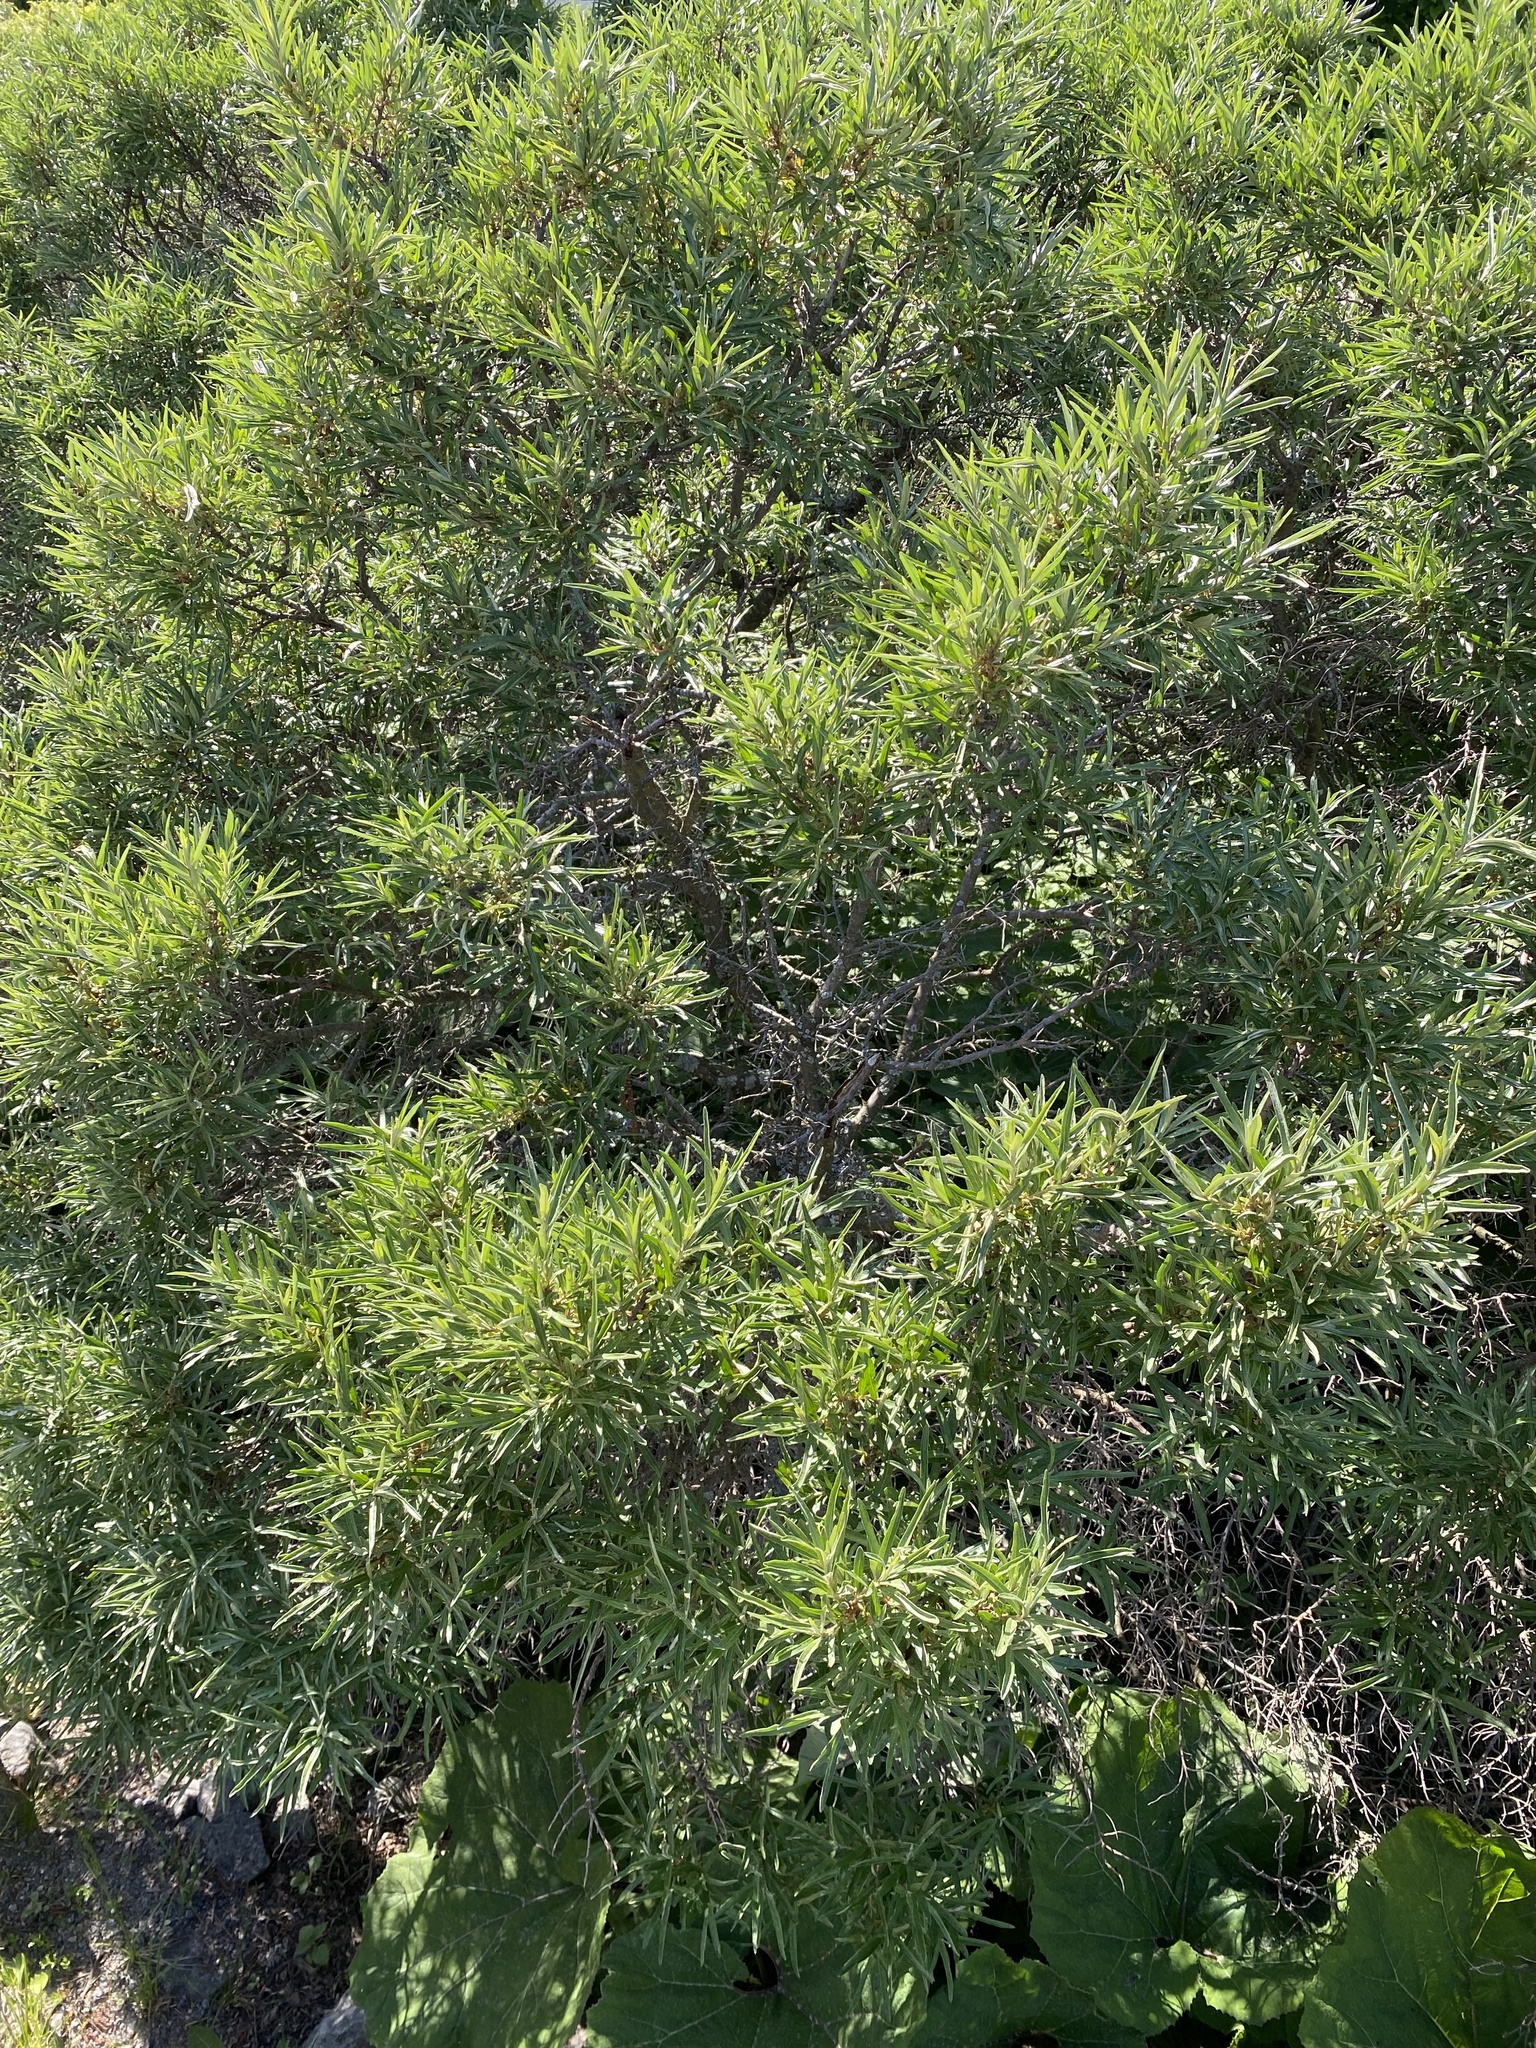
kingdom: Plantae
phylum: Tracheophyta
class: Magnoliopsida
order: Rosales
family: Elaeagnaceae
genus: Hippophae
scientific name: Hippophae rhamnoides
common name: Sea-buckthorn
